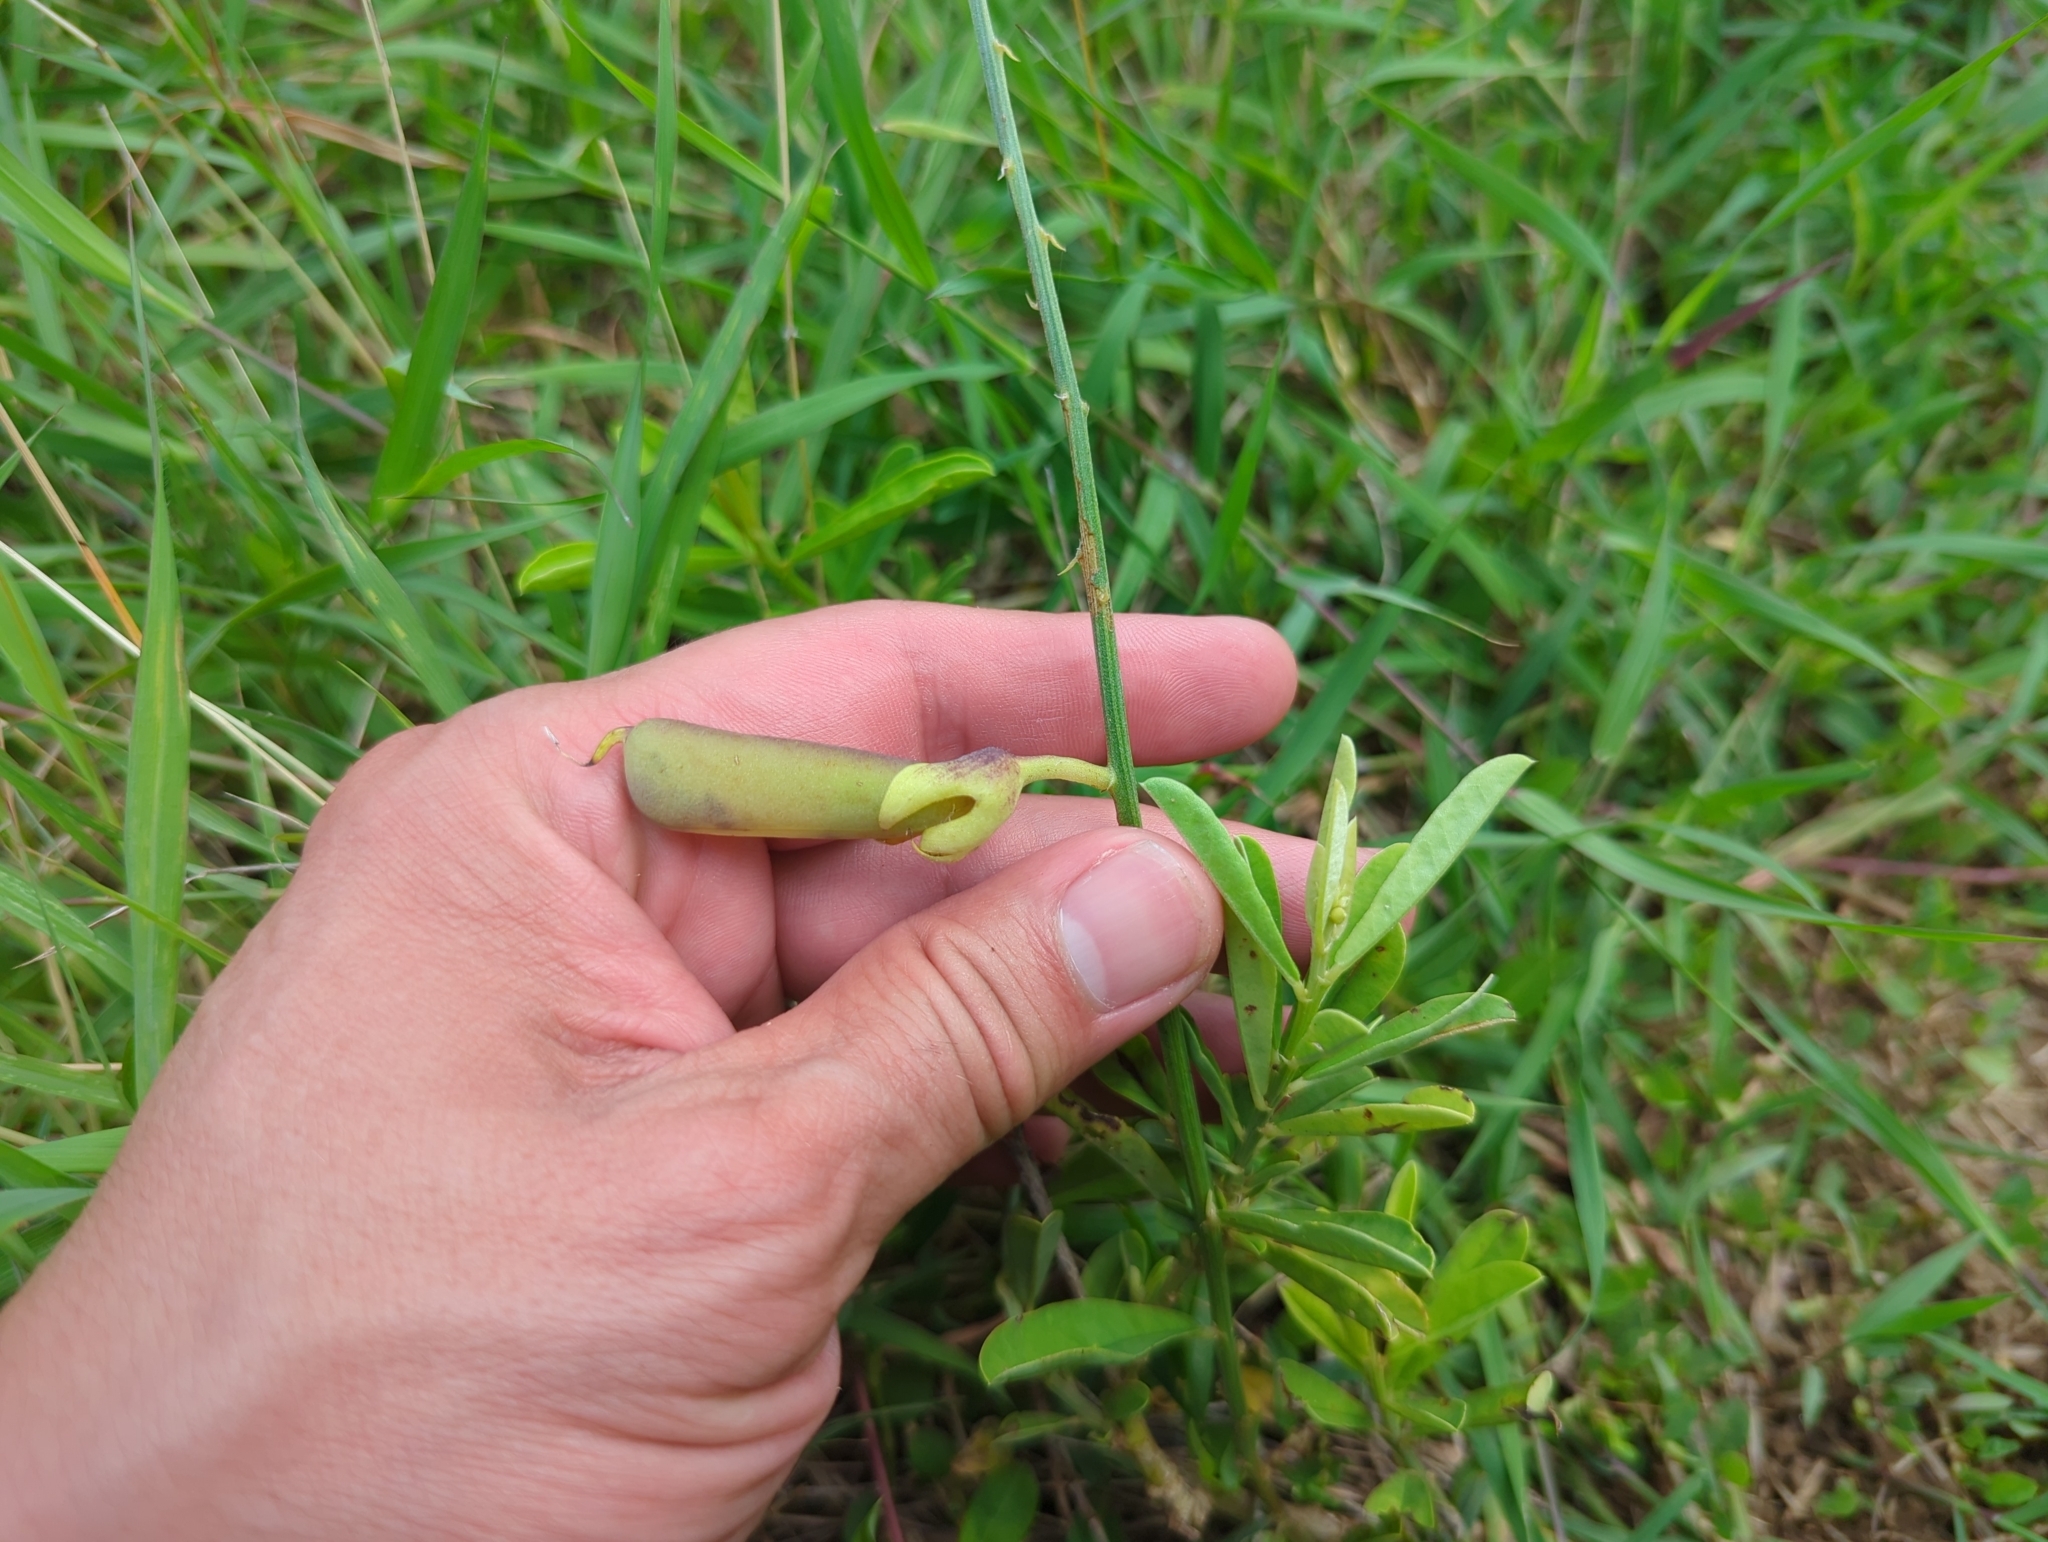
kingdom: Plantae
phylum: Tracheophyta
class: Magnoliopsida
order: Fabales
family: Fabaceae
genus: Crotalaria
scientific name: Crotalaria retusa
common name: Rattleweed
